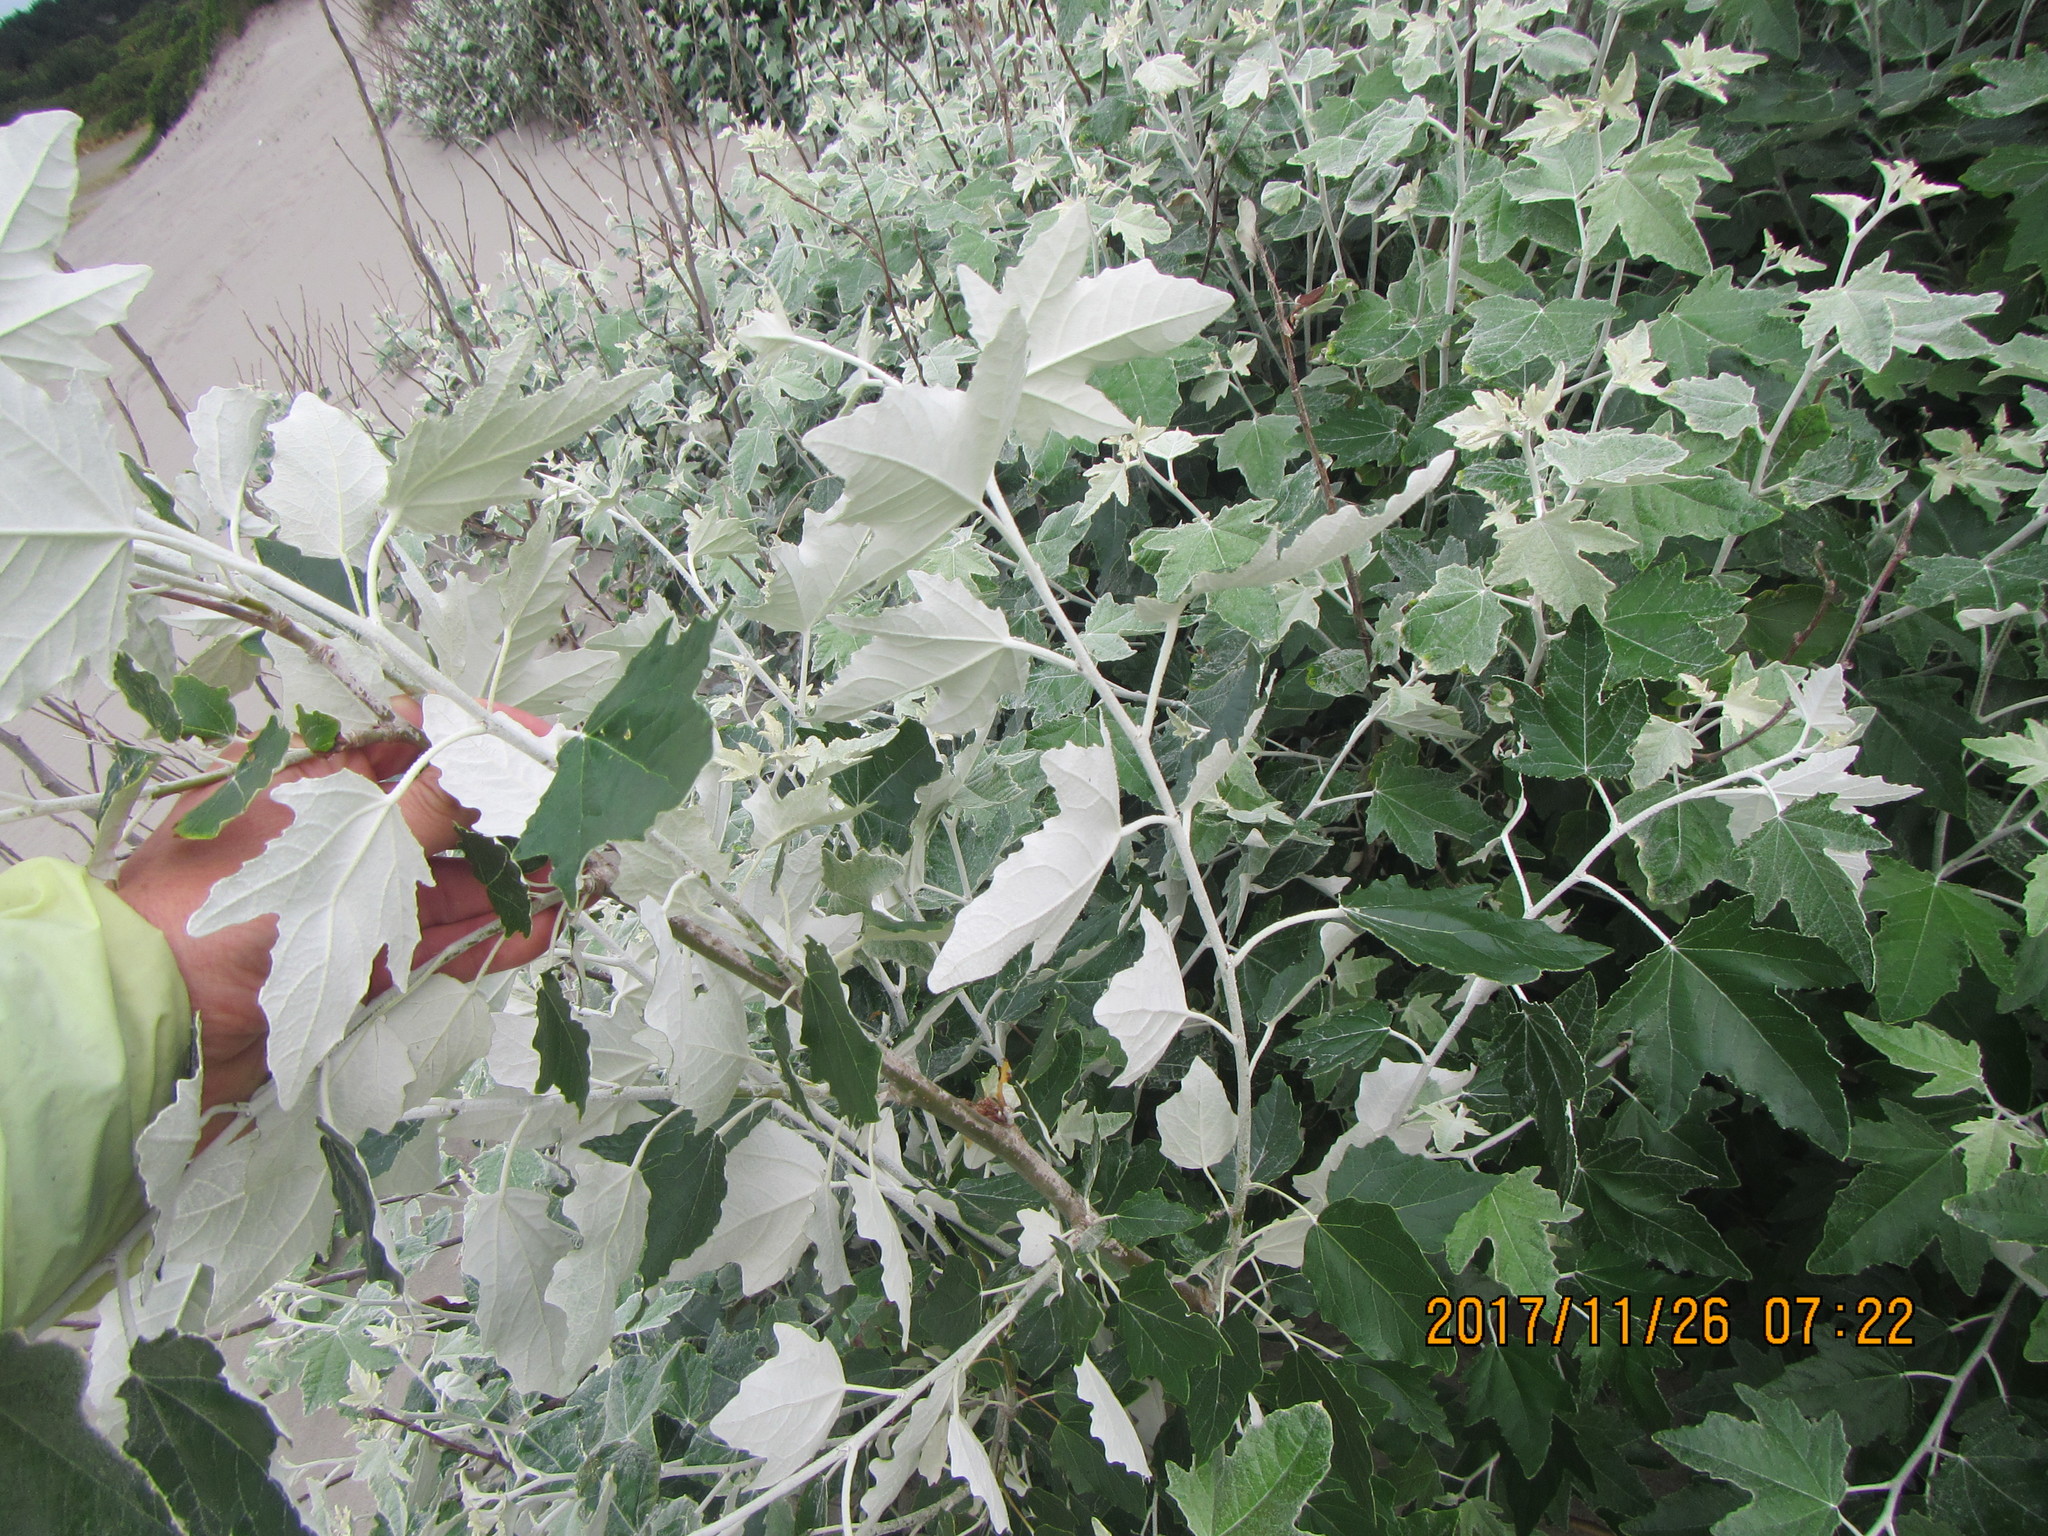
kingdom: Plantae
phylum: Tracheophyta
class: Magnoliopsida
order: Malpighiales
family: Salicaceae
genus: Populus
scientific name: Populus alba
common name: White poplar
